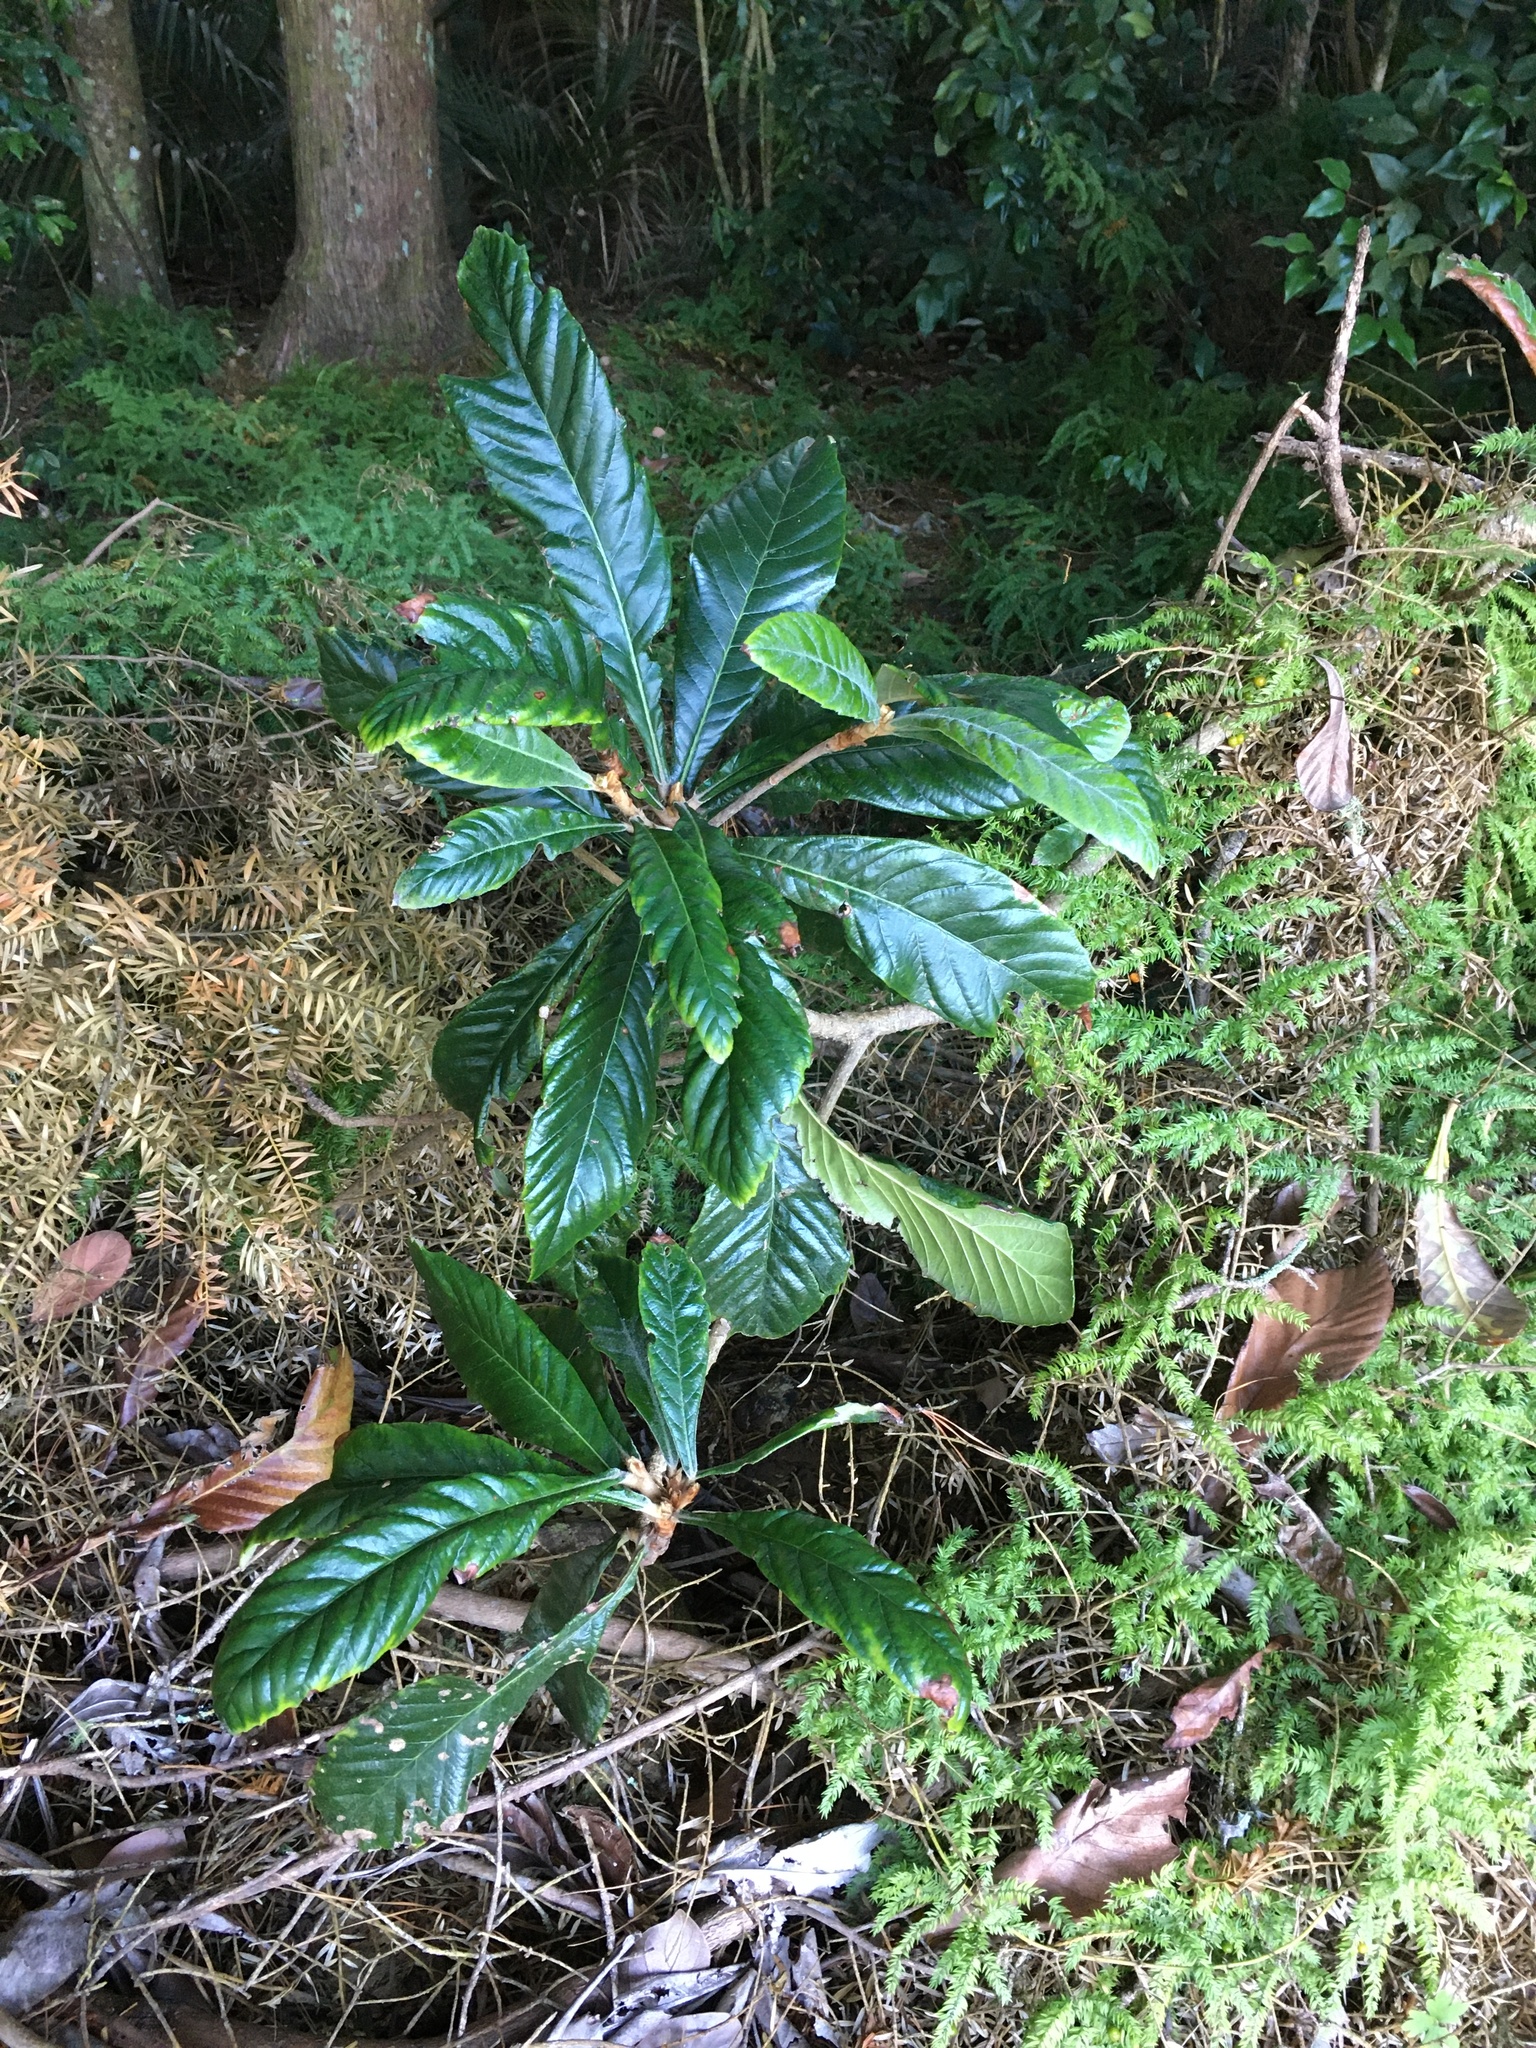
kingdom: Plantae
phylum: Tracheophyta
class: Magnoliopsida
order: Rosales
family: Rosaceae
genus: Rhaphiolepis
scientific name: Rhaphiolepis bibas
